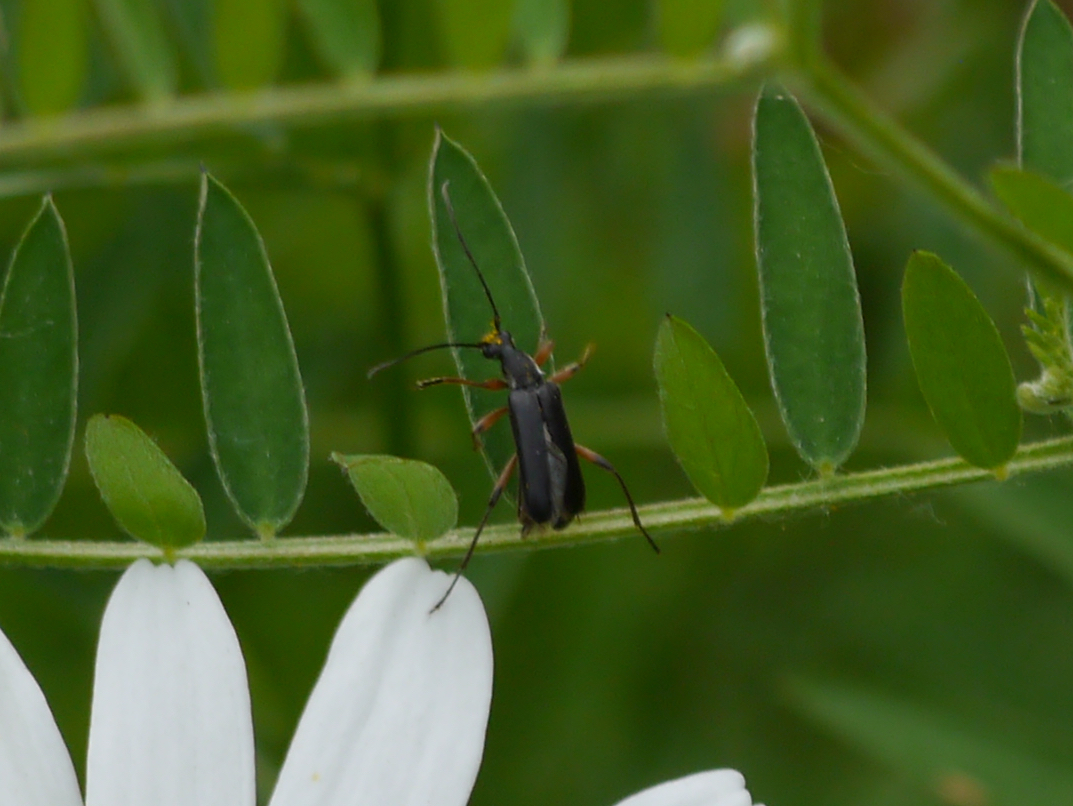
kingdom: Animalia
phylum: Arthropoda
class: Insecta
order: Coleoptera
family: Cerambycidae
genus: Grammoptera
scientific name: Grammoptera subargentata
